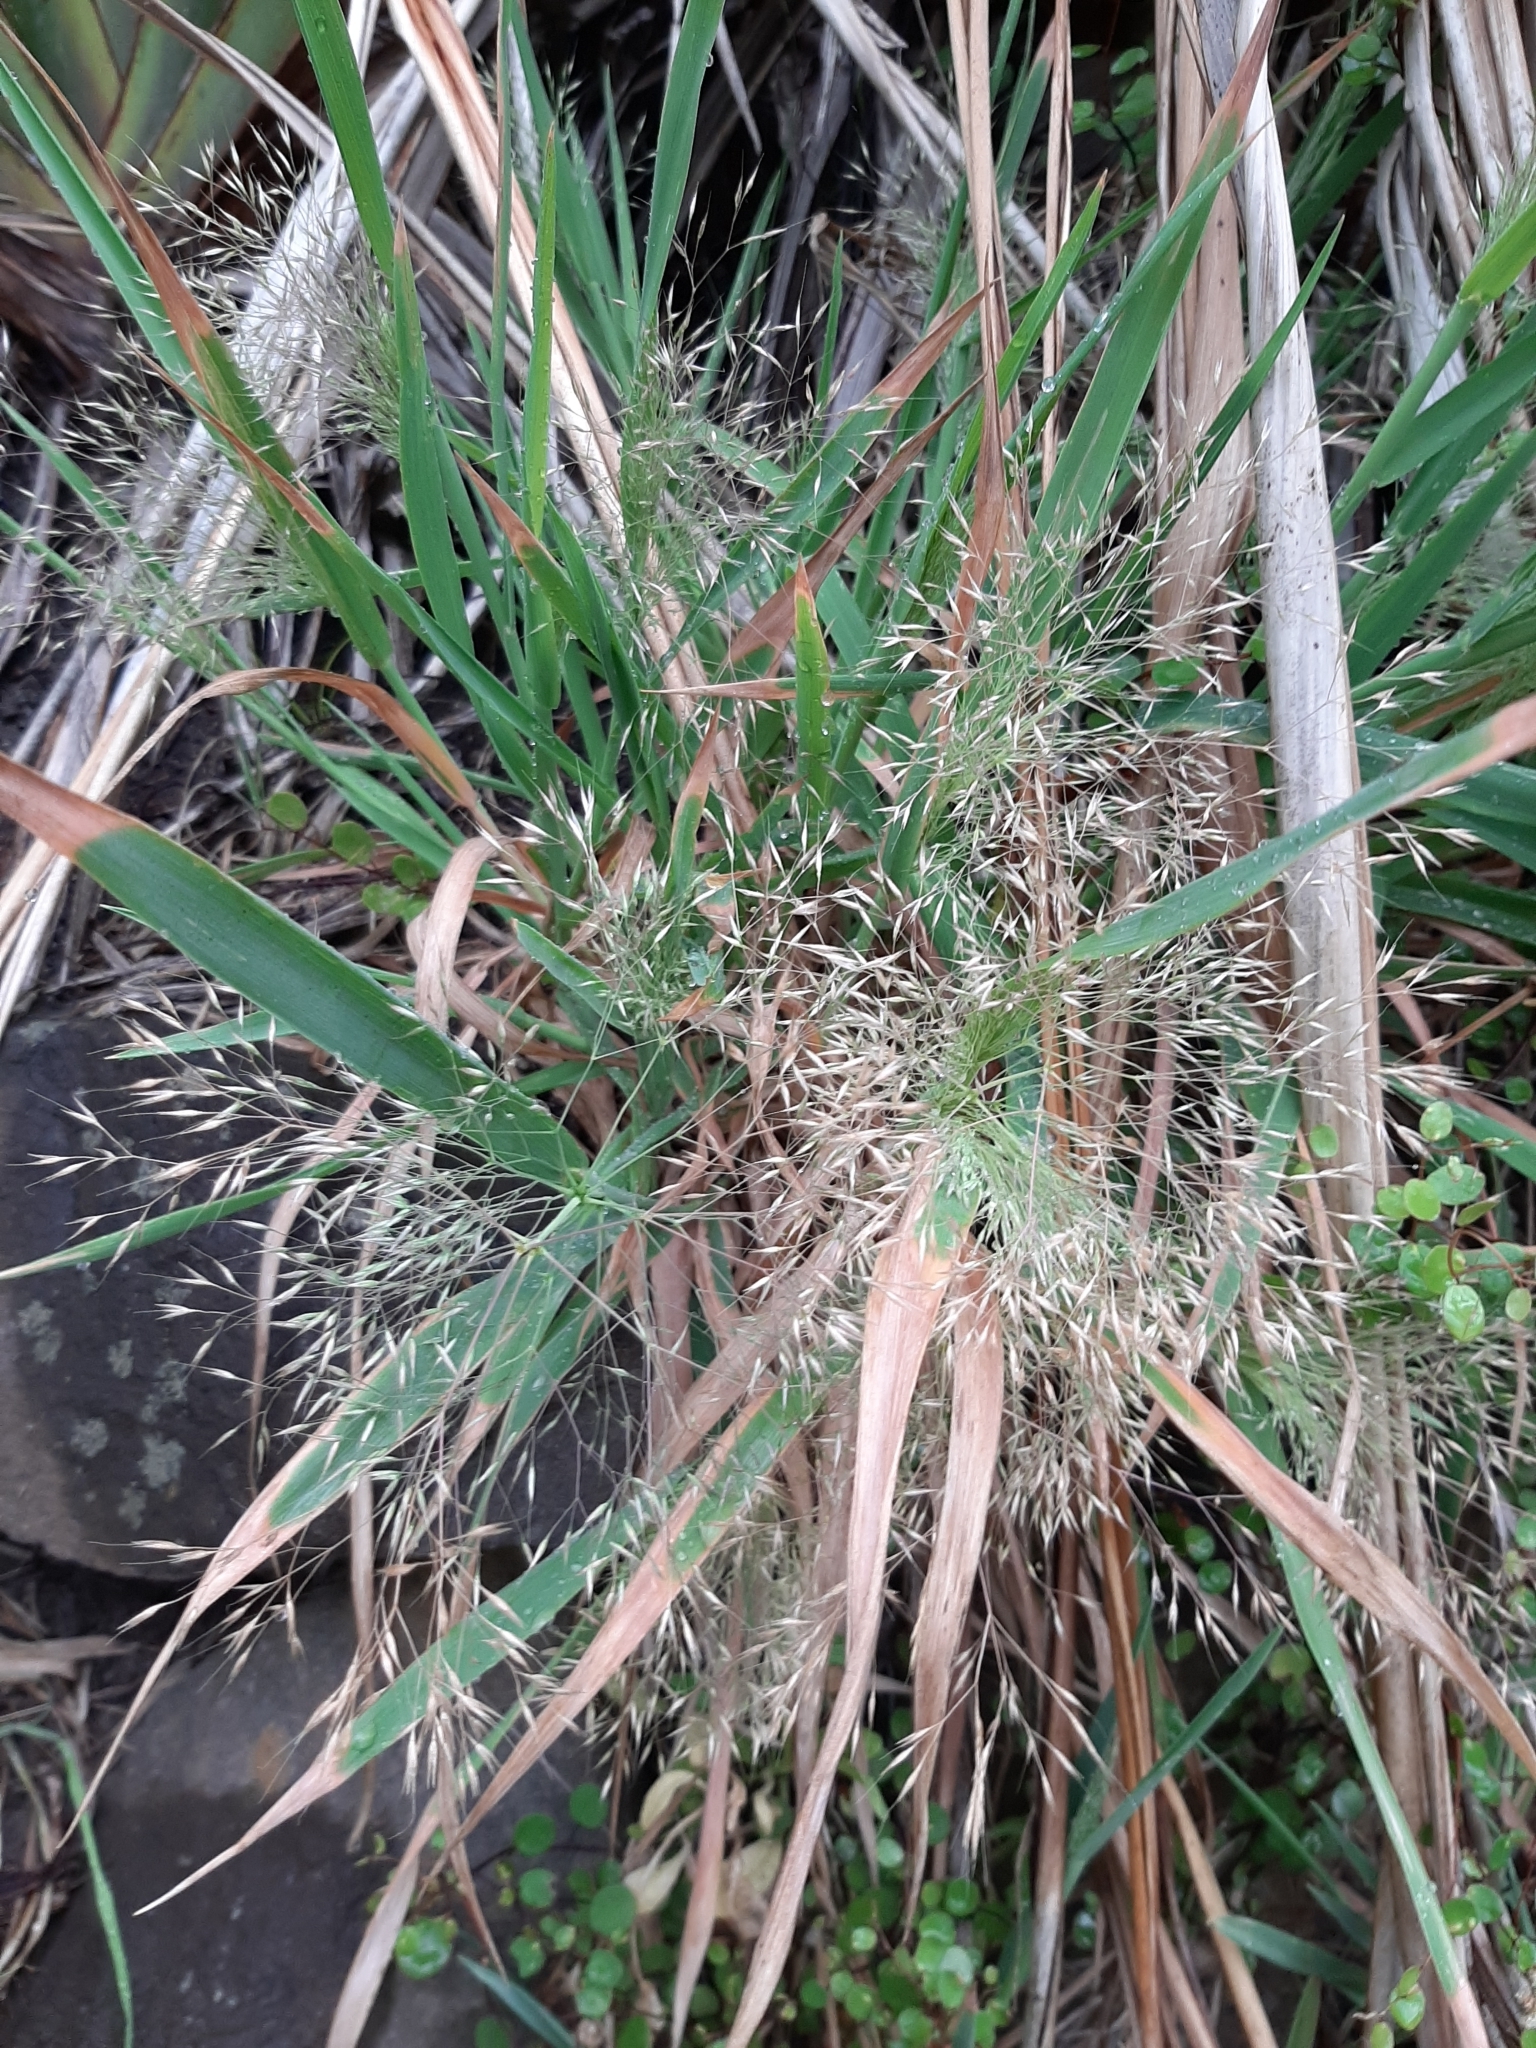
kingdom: Plantae
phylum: Tracheophyta
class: Liliopsida
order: Poales
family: Poaceae
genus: Lachnagrostis
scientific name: Lachnagrostis billardierei
